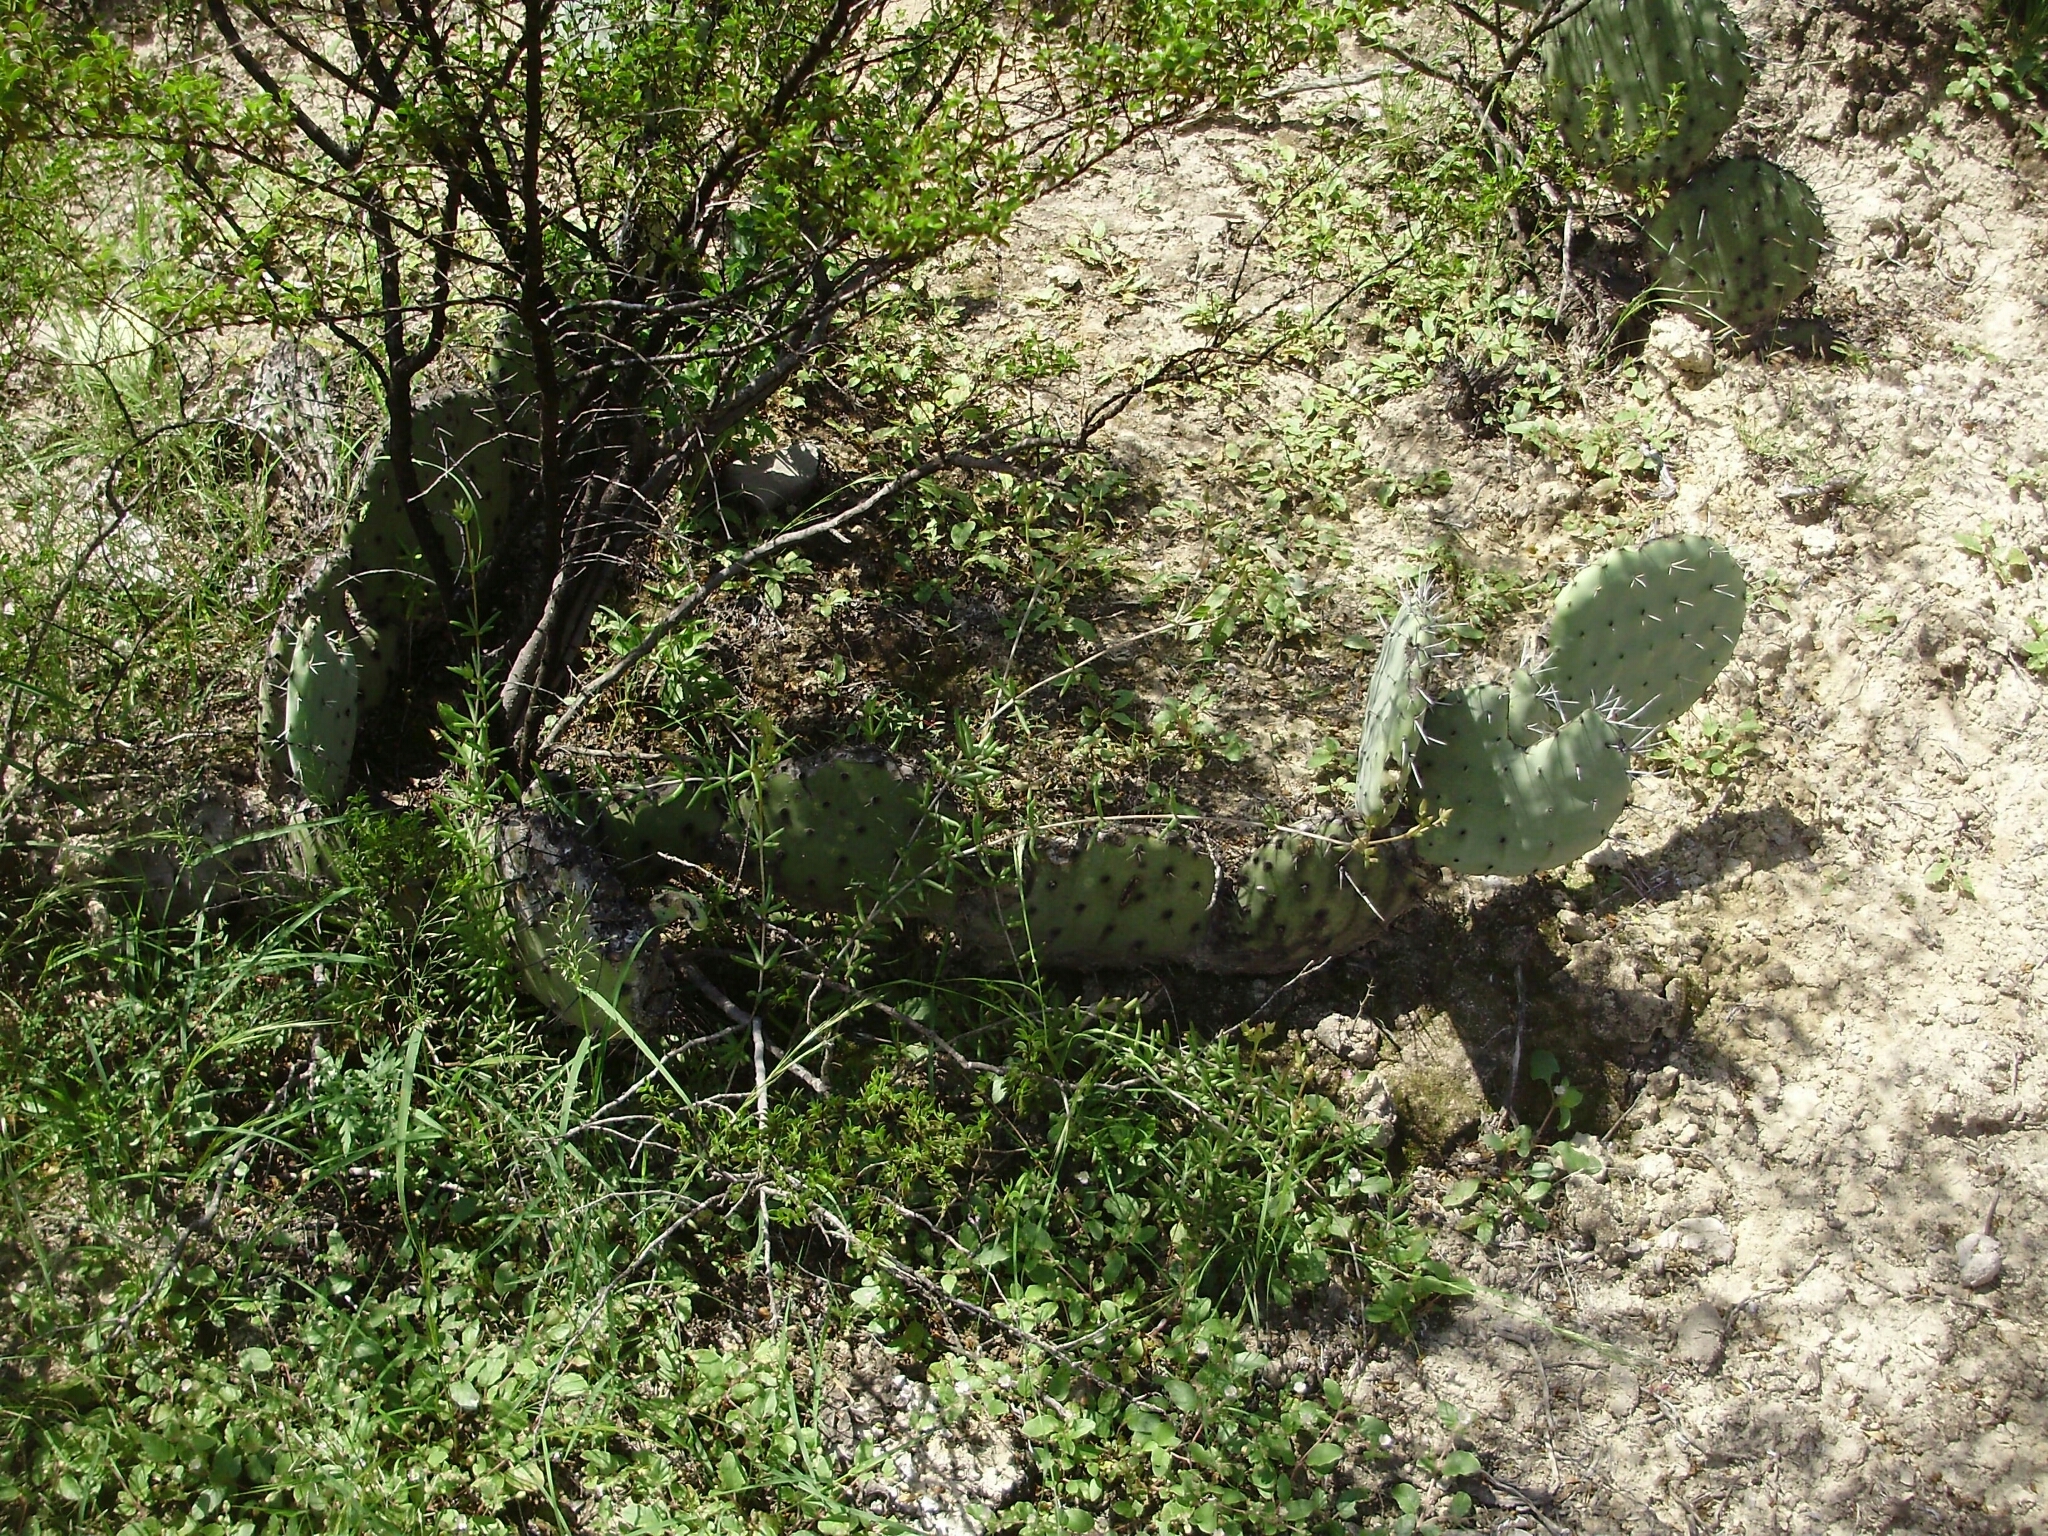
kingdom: Plantae
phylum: Tracheophyta
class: Magnoliopsida
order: Caryophyllales
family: Cactaceae
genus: Opuntia
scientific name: Opuntia stenopetala
